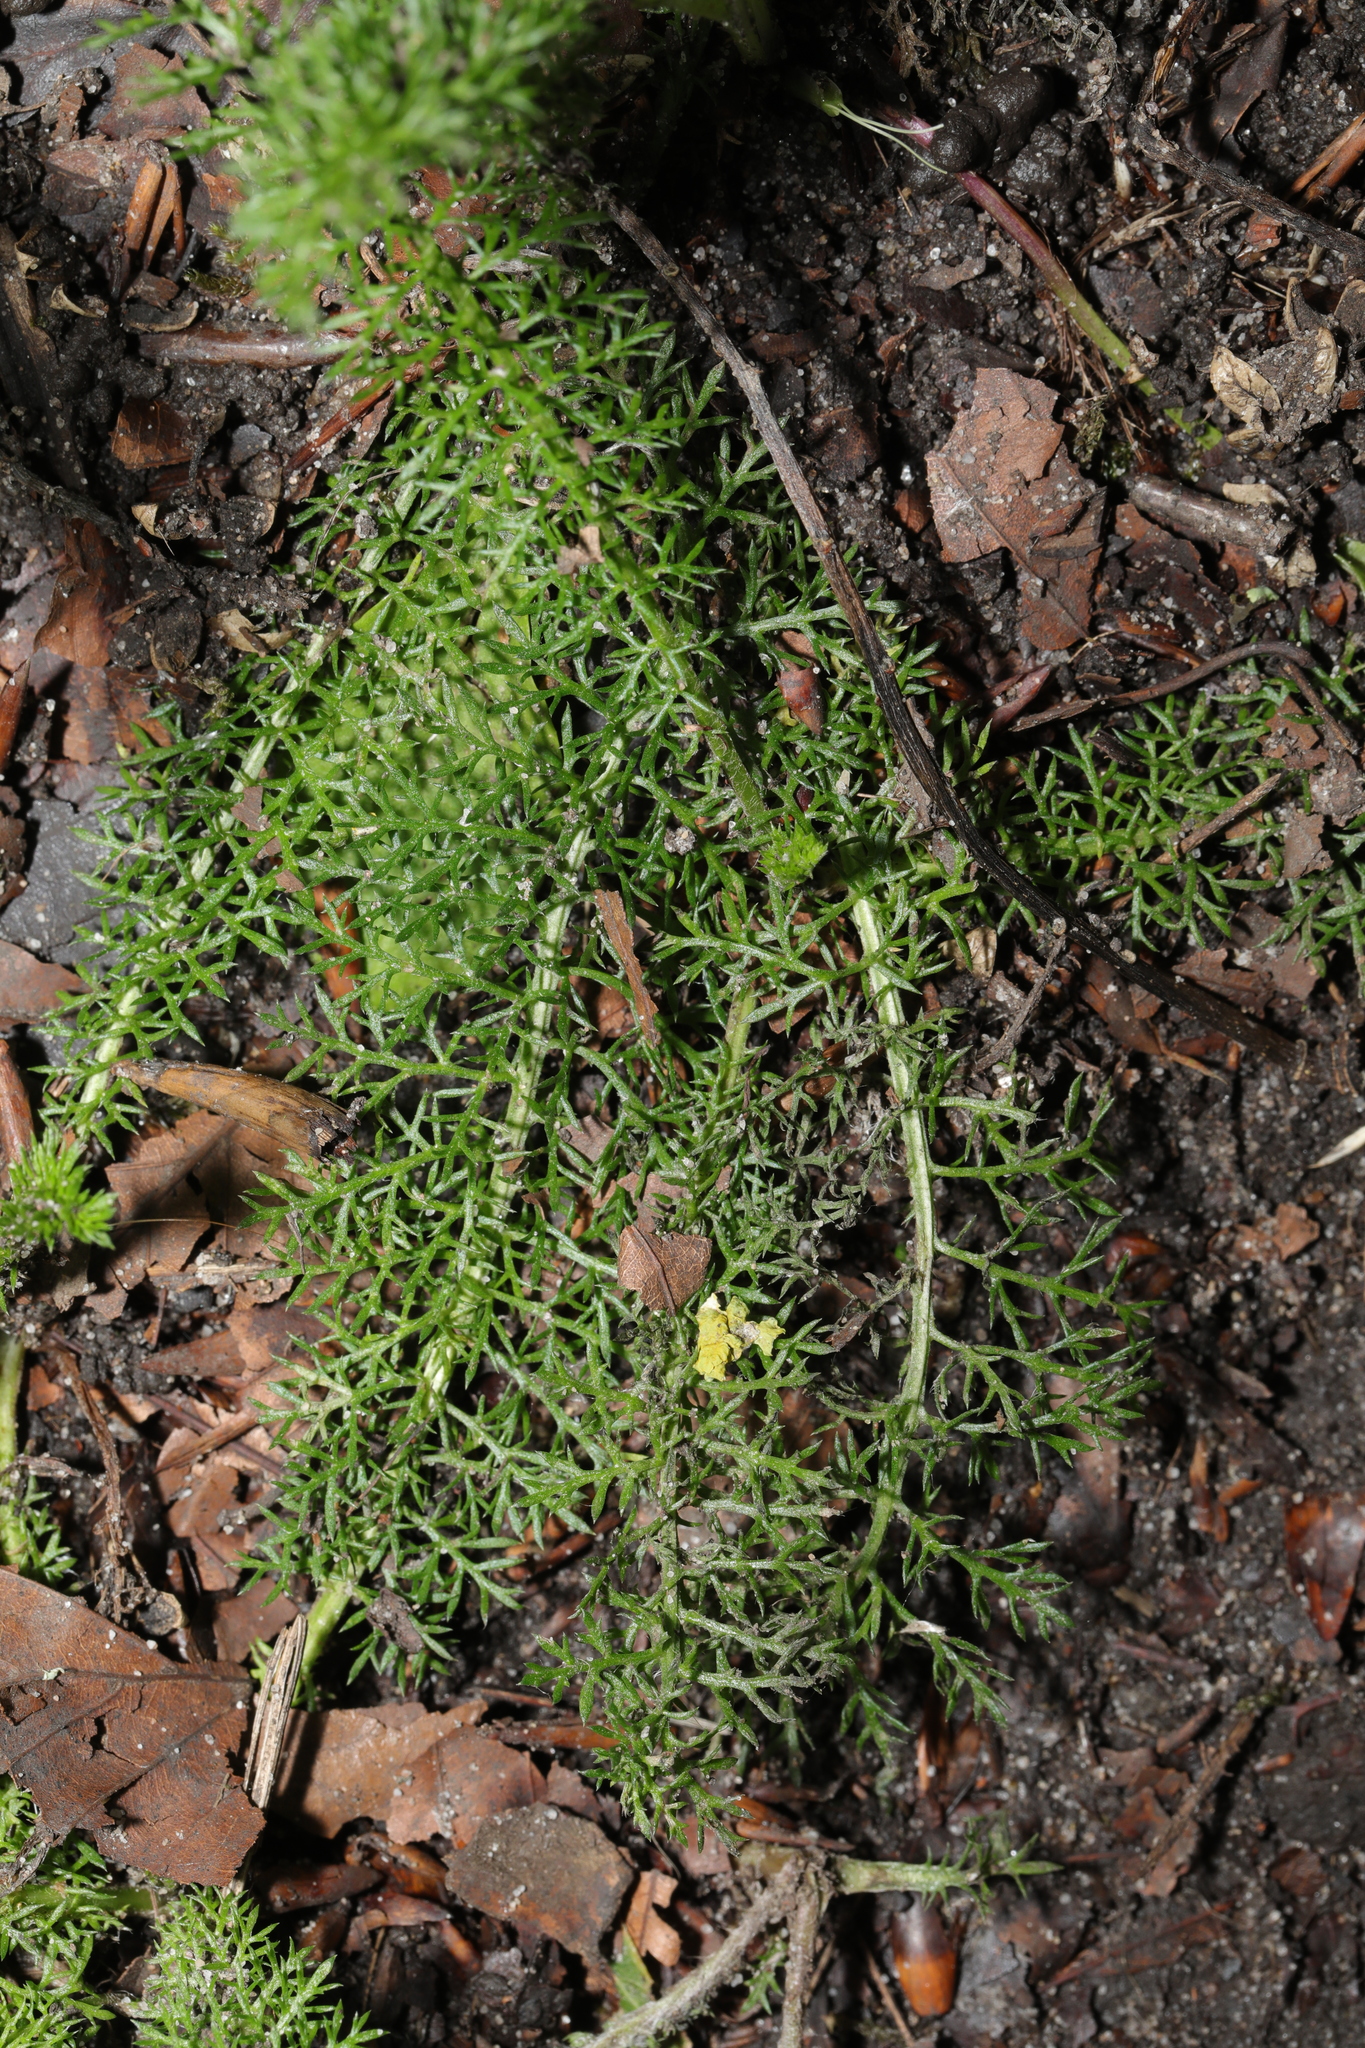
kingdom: Plantae
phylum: Tracheophyta
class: Magnoliopsida
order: Asterales
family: Asteraceae
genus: Achillea
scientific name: Achillea millefolium
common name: Yarrow
